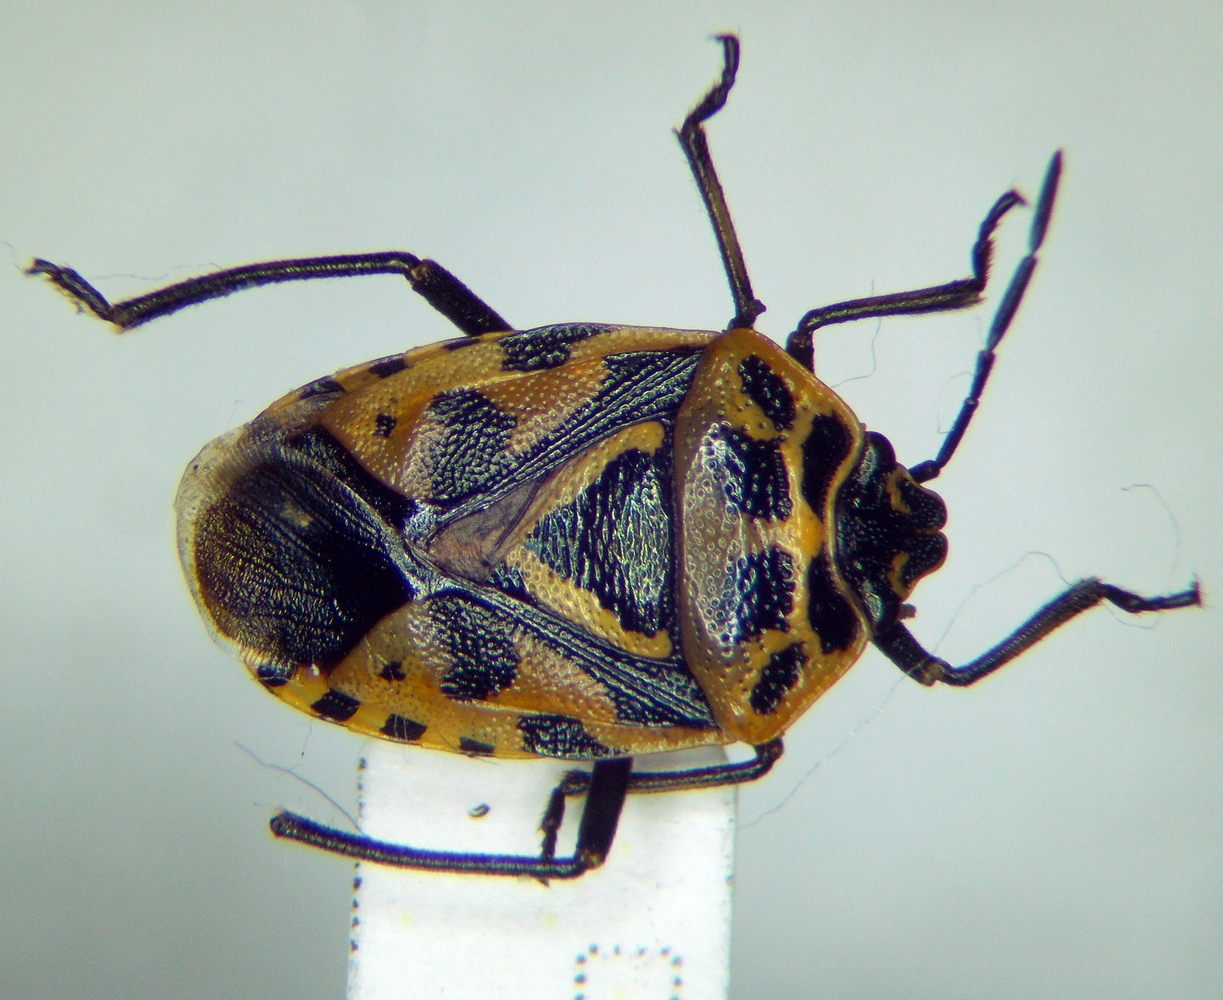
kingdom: Animalia
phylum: Arthropoda
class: Insecta
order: Hemiptera
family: Pentatomidae
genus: Eurydema
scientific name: Eurydema ventralis
